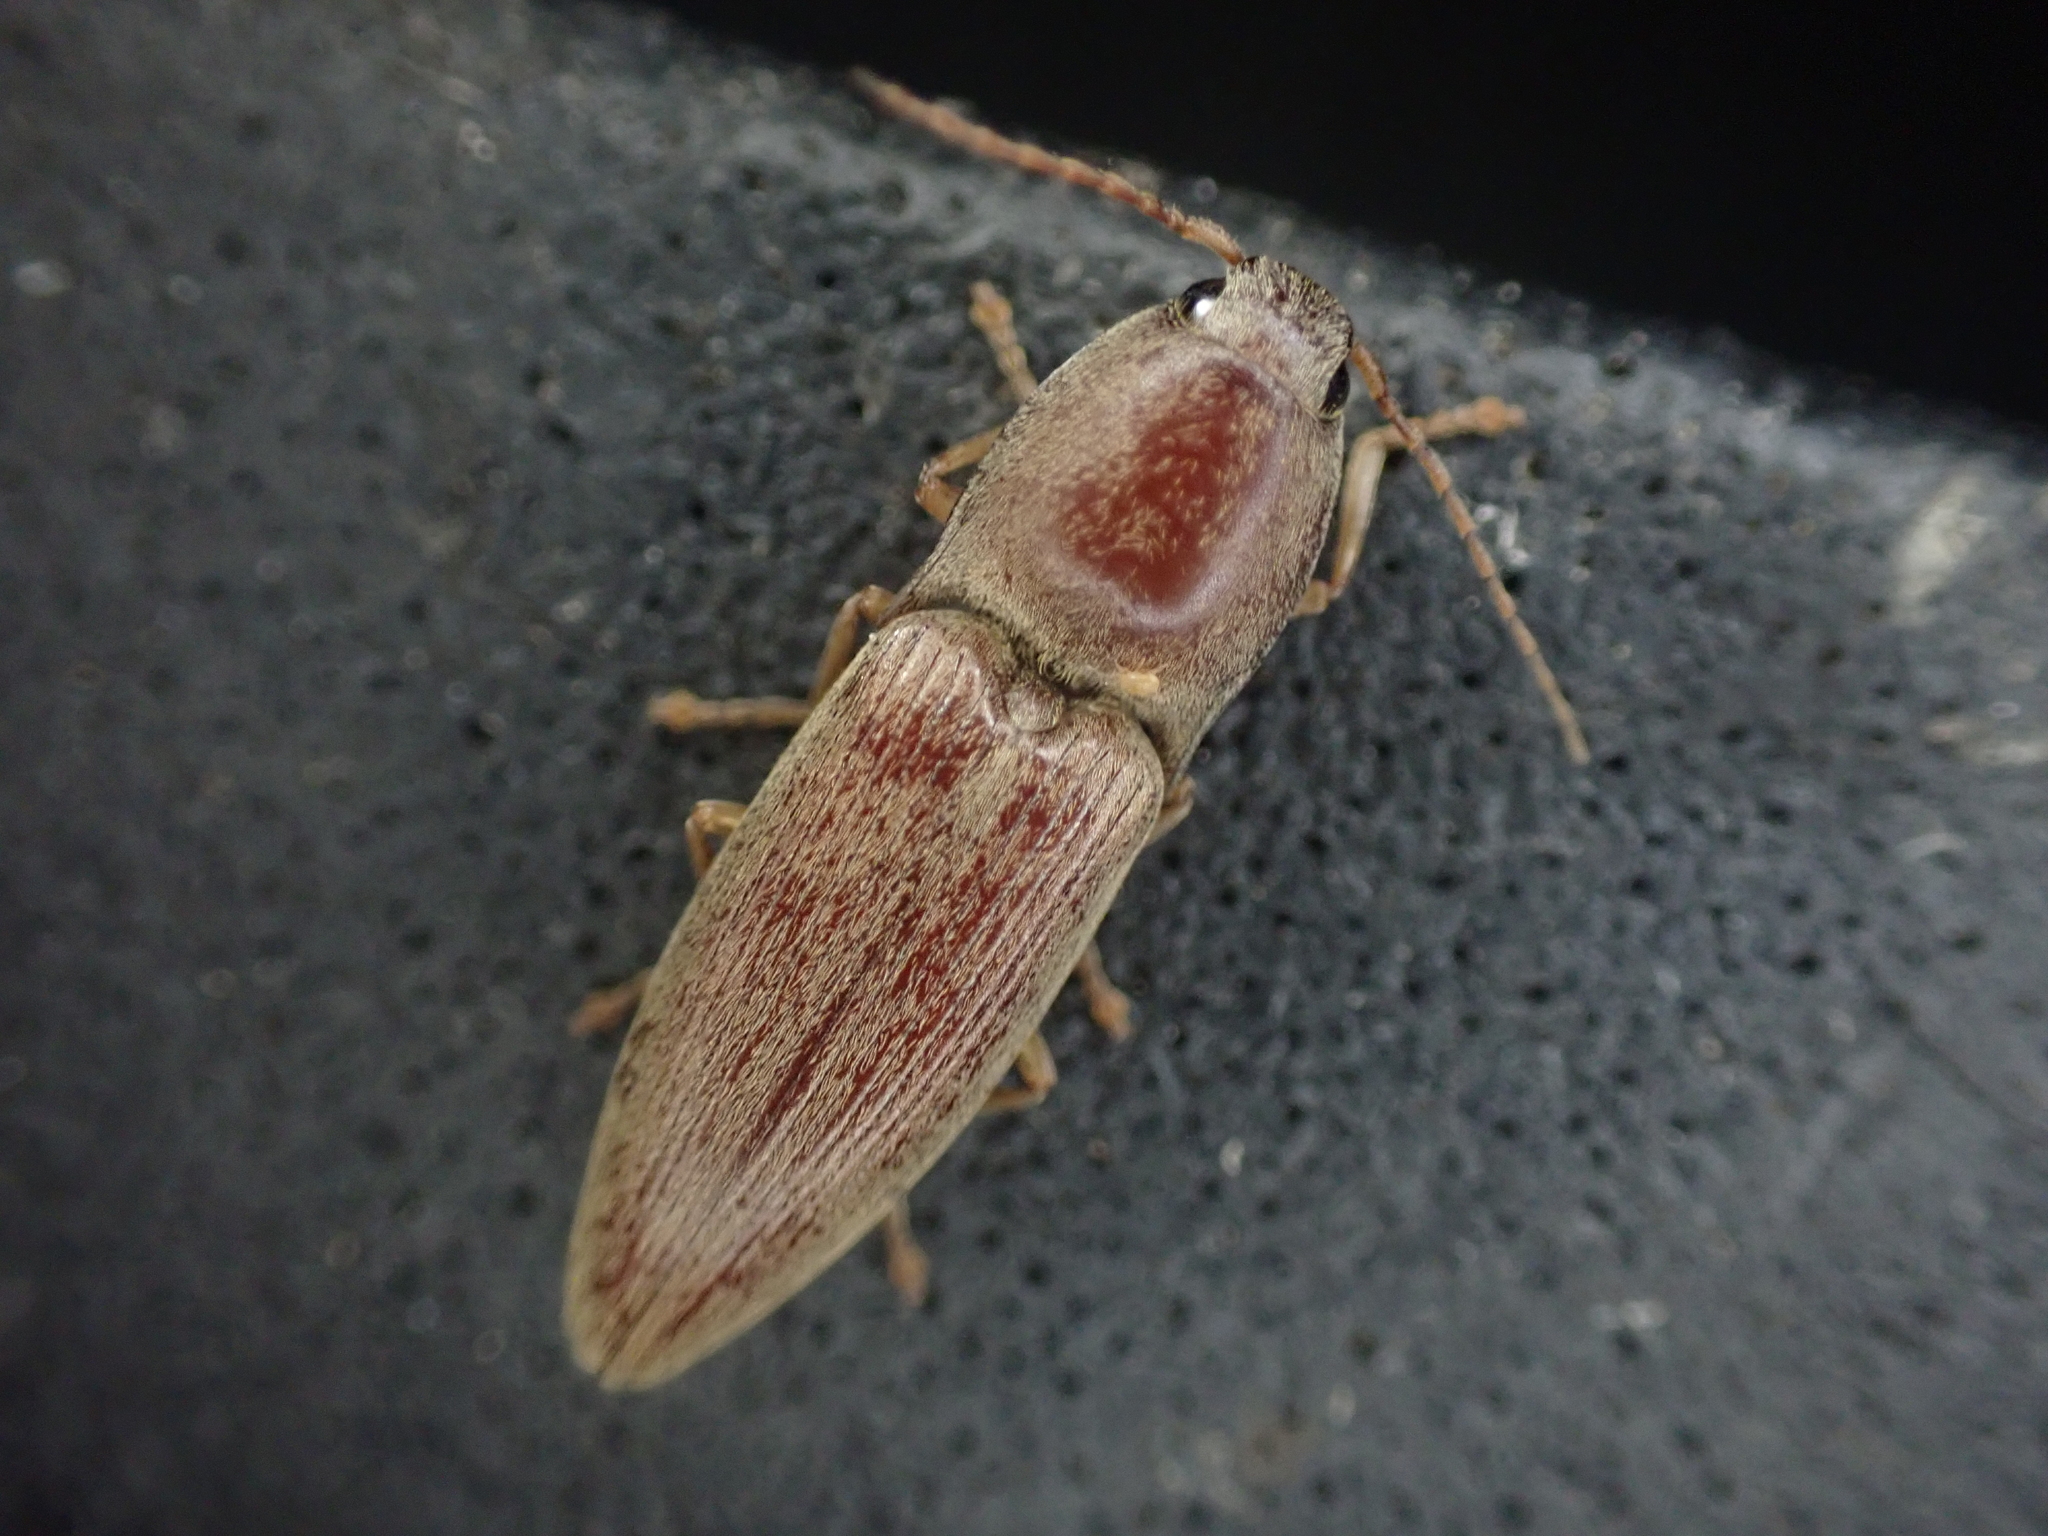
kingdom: Animalia
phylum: Arthropoda
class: Insecta
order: Coleoptera
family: Elateridae
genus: Monocrepidius
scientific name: Monocrepidius lividus
